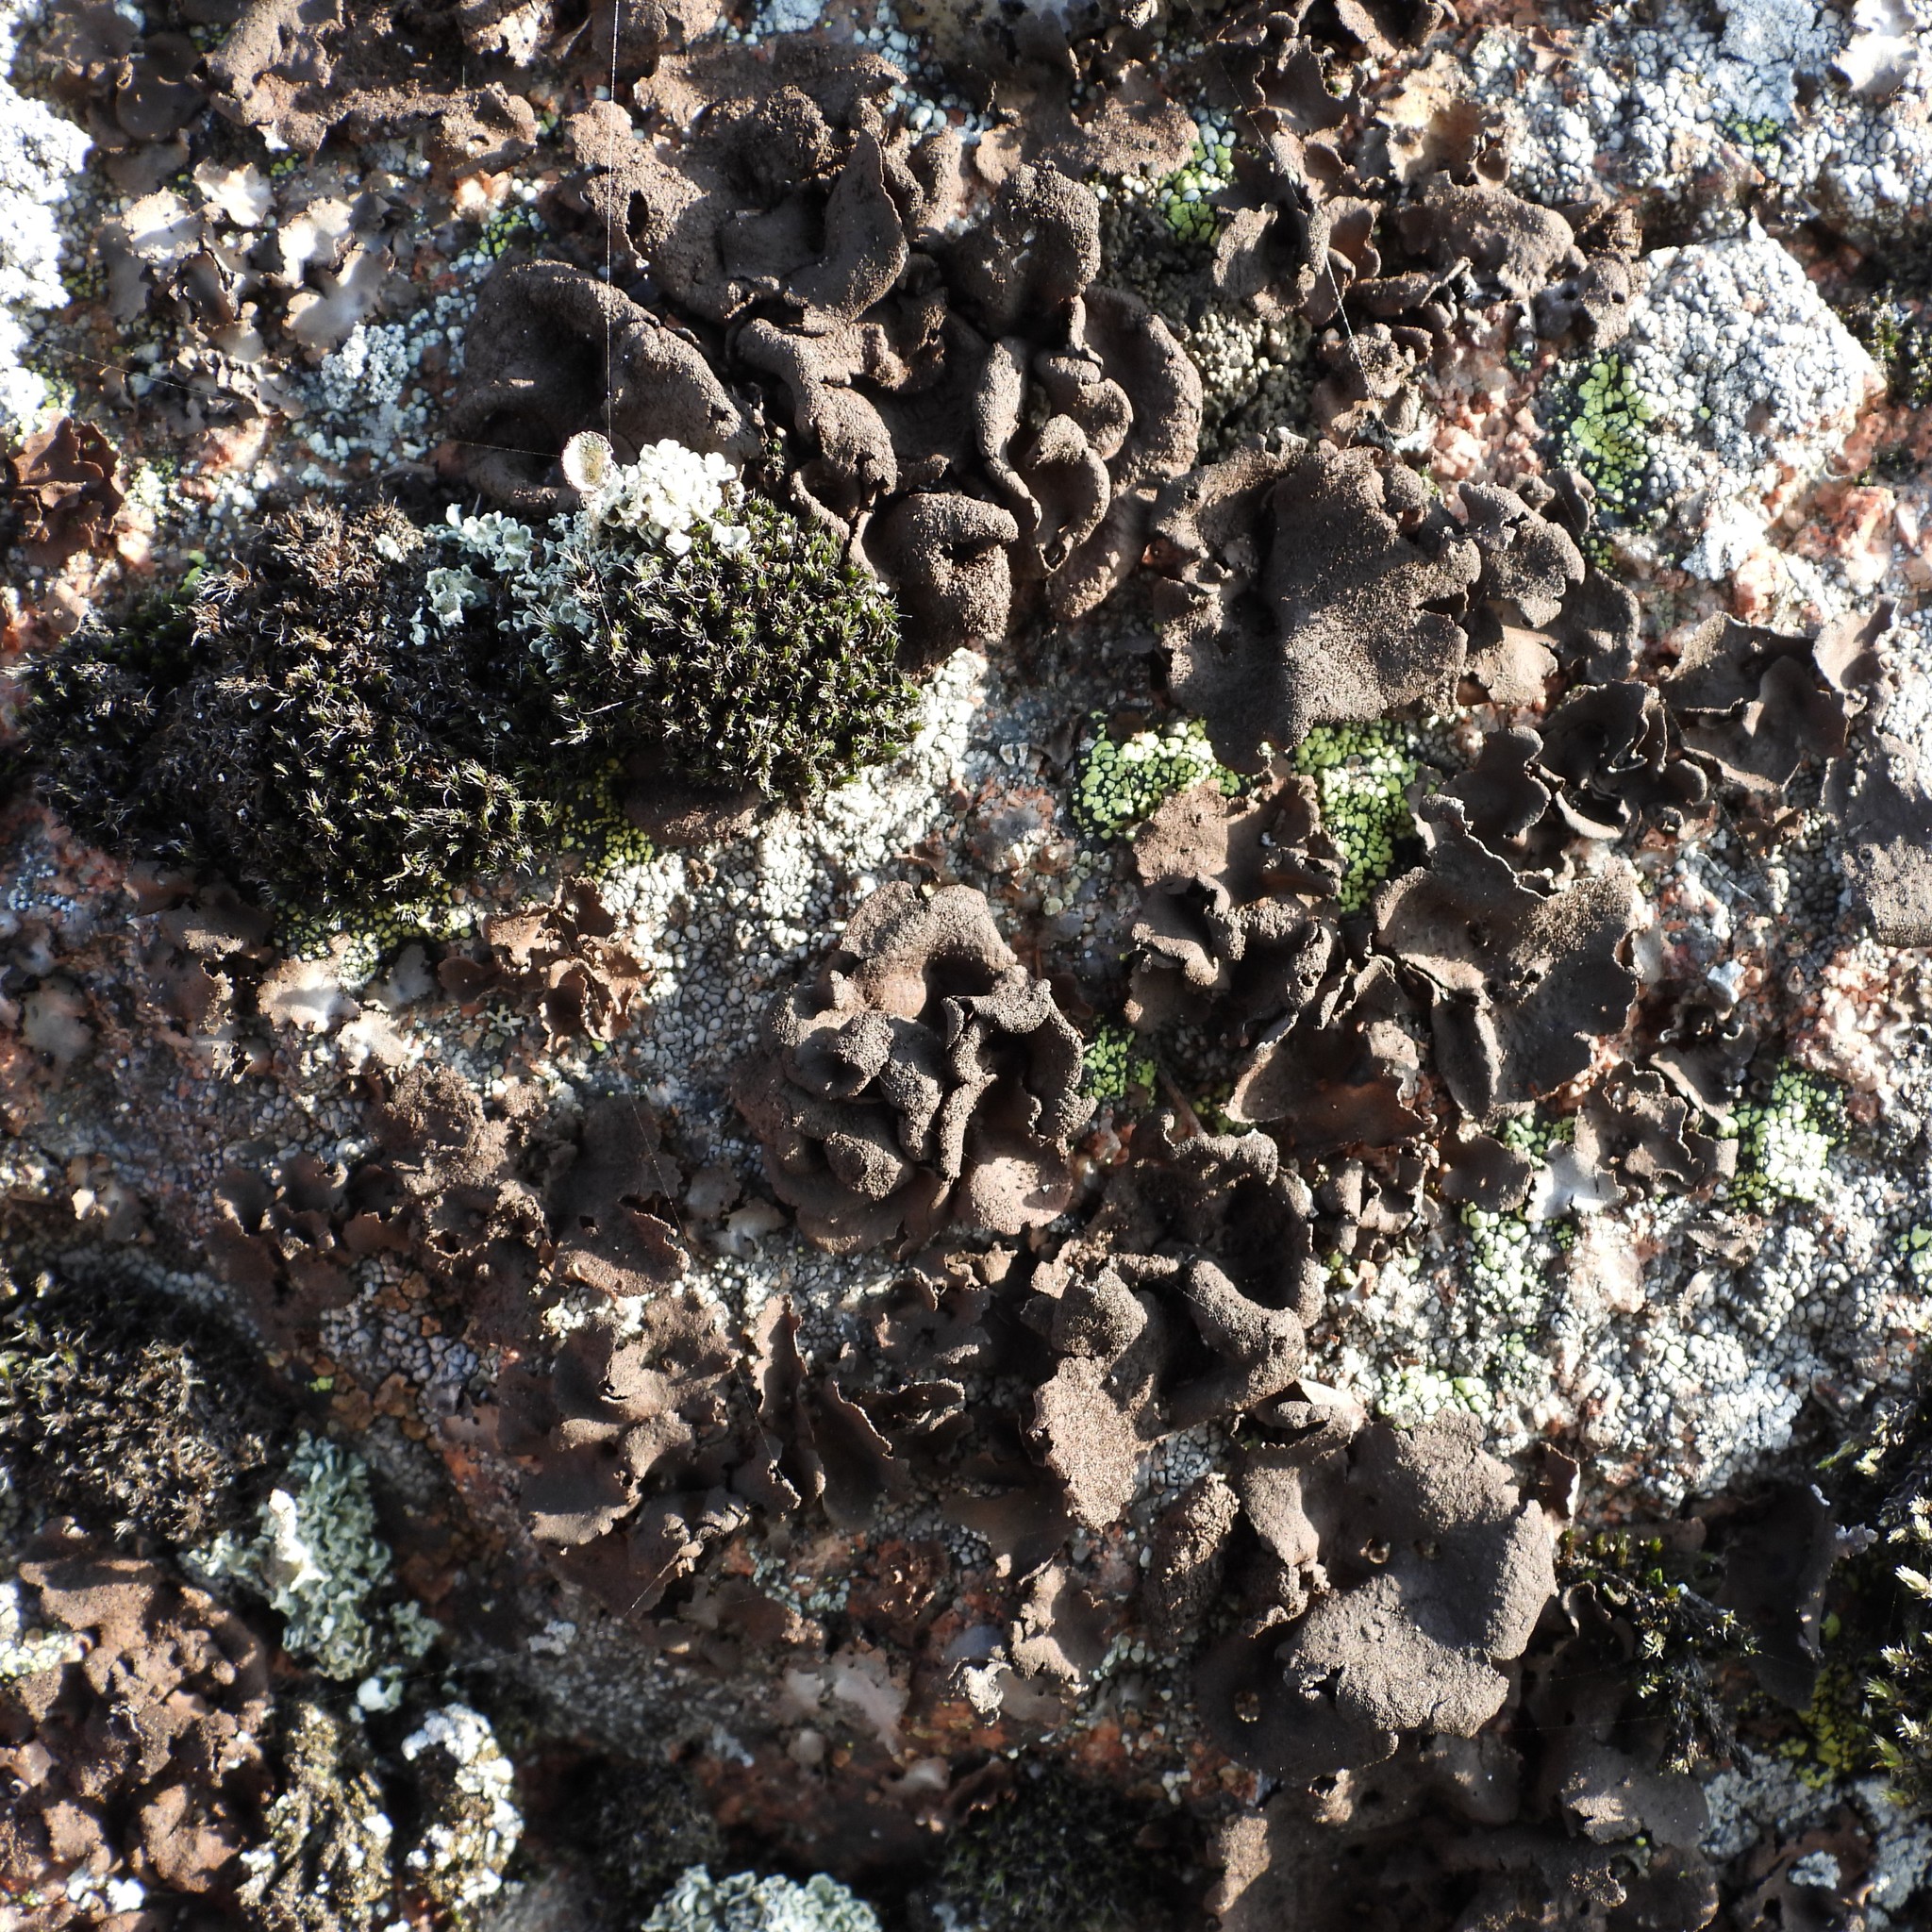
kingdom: Fungi
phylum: Ascomycota
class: Lecanoromycetes
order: Umbilicariales
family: Umbilicariaceae
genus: Umbilicaria
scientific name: Umbilicaria deusta
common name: Peppered rock tripe
